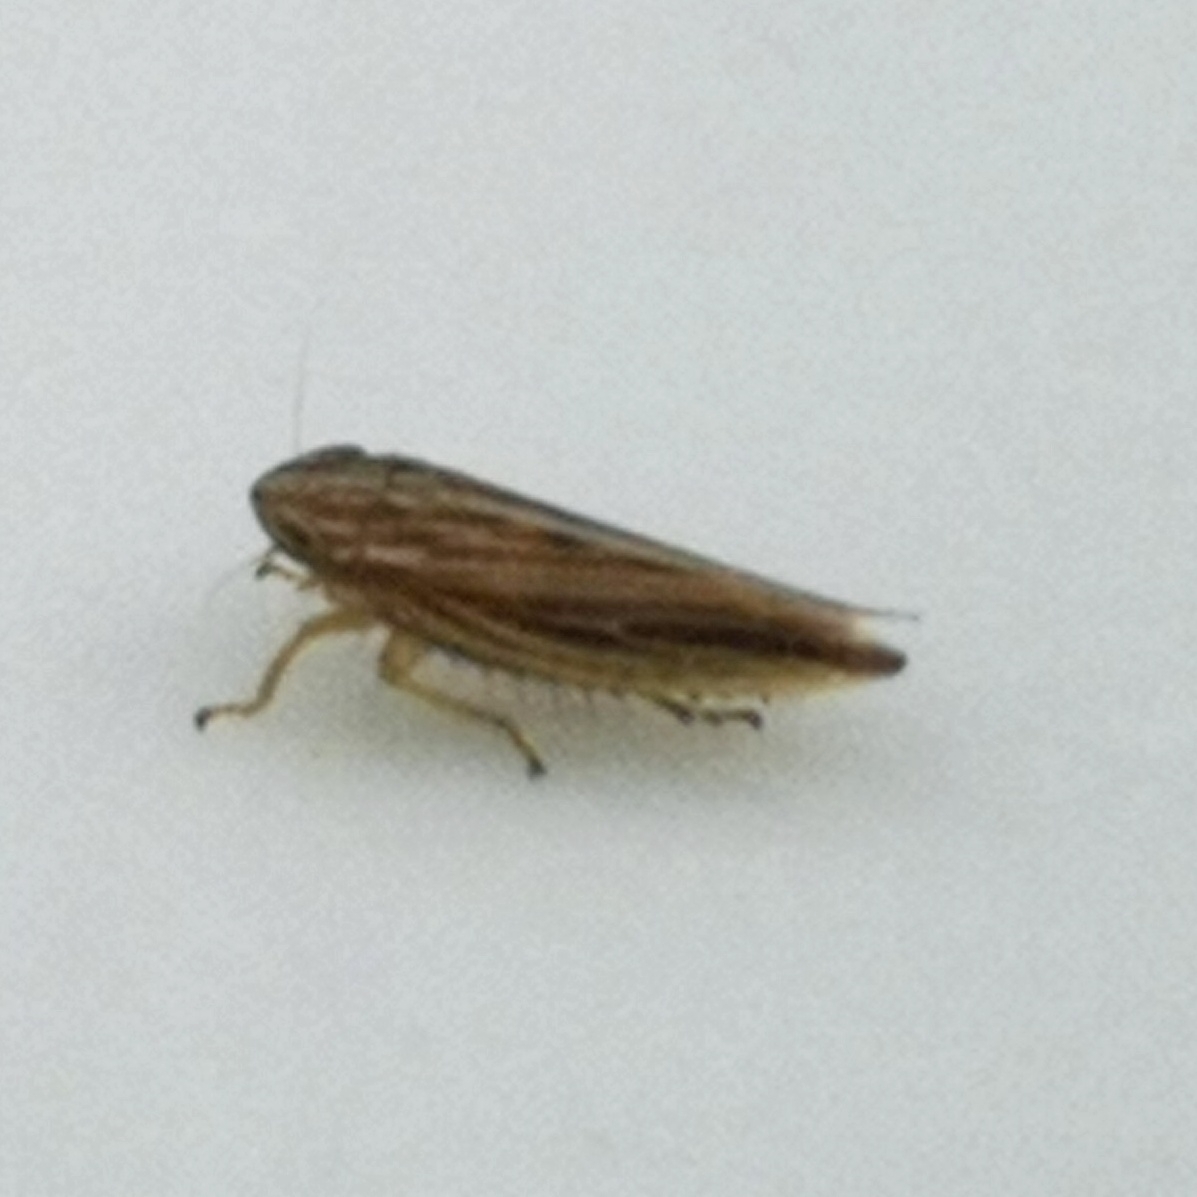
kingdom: Animalia
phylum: Arthropoda
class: Insecta
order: Hemiptera
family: Cicadellidae
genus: Mocydia
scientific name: Mocydia crocea
